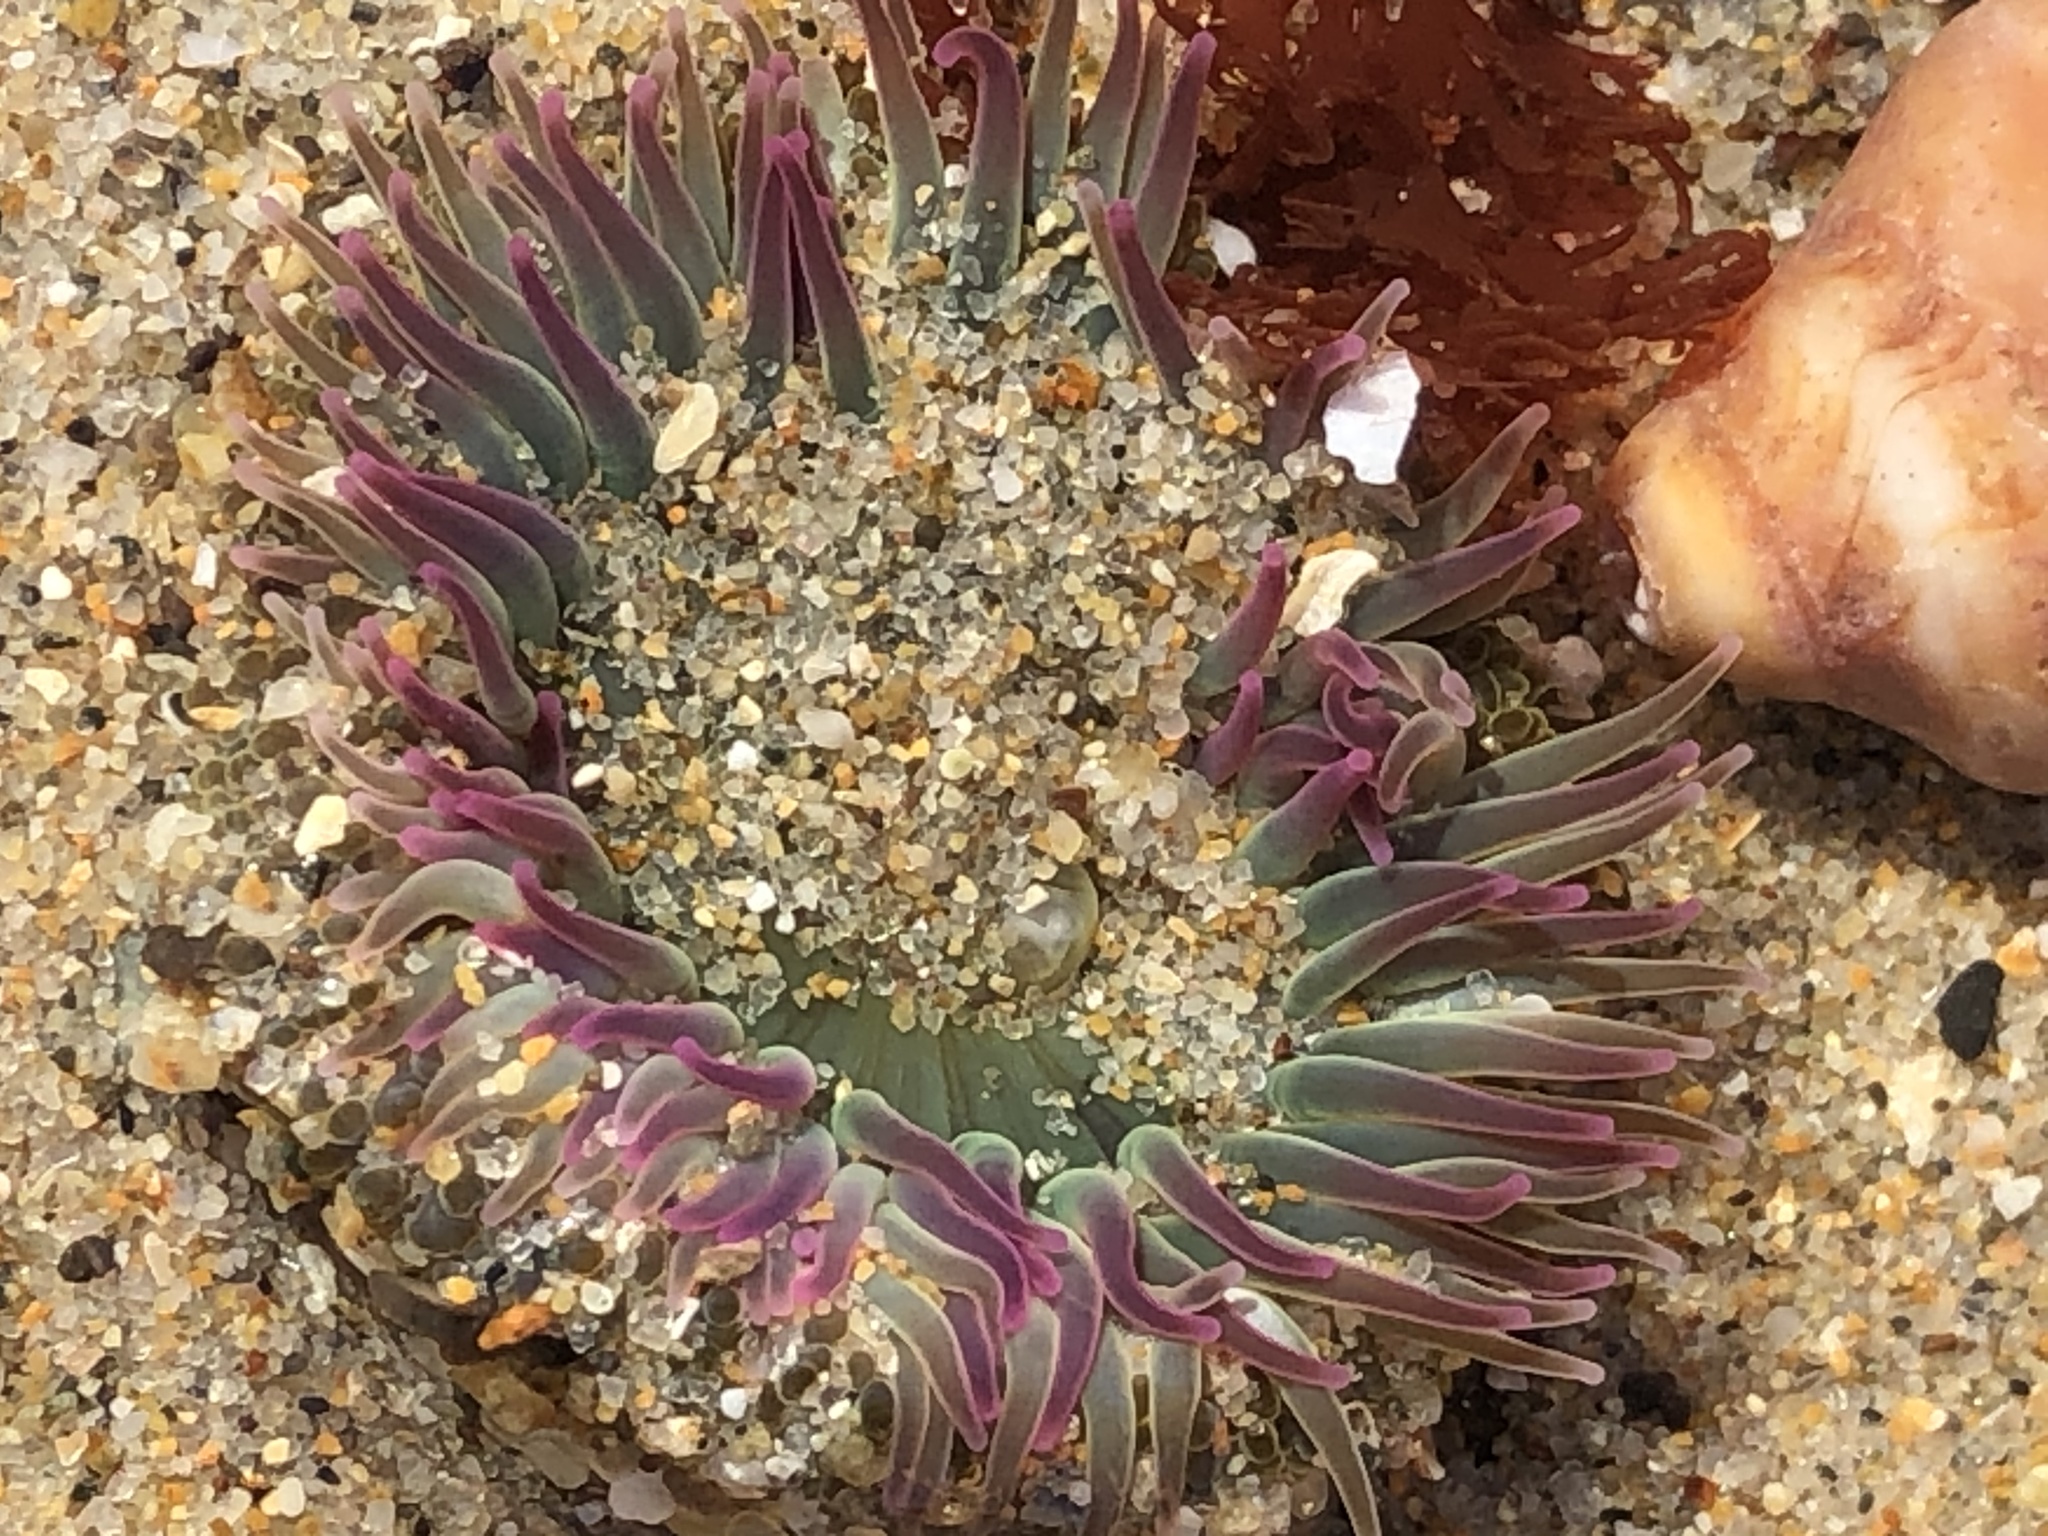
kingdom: Animalia
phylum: Cnidaria
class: Anthozoa
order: Actiniaria
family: Actiniidae
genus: Anthopleura
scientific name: Anthopleura elegantissima
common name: Clonal anemone
